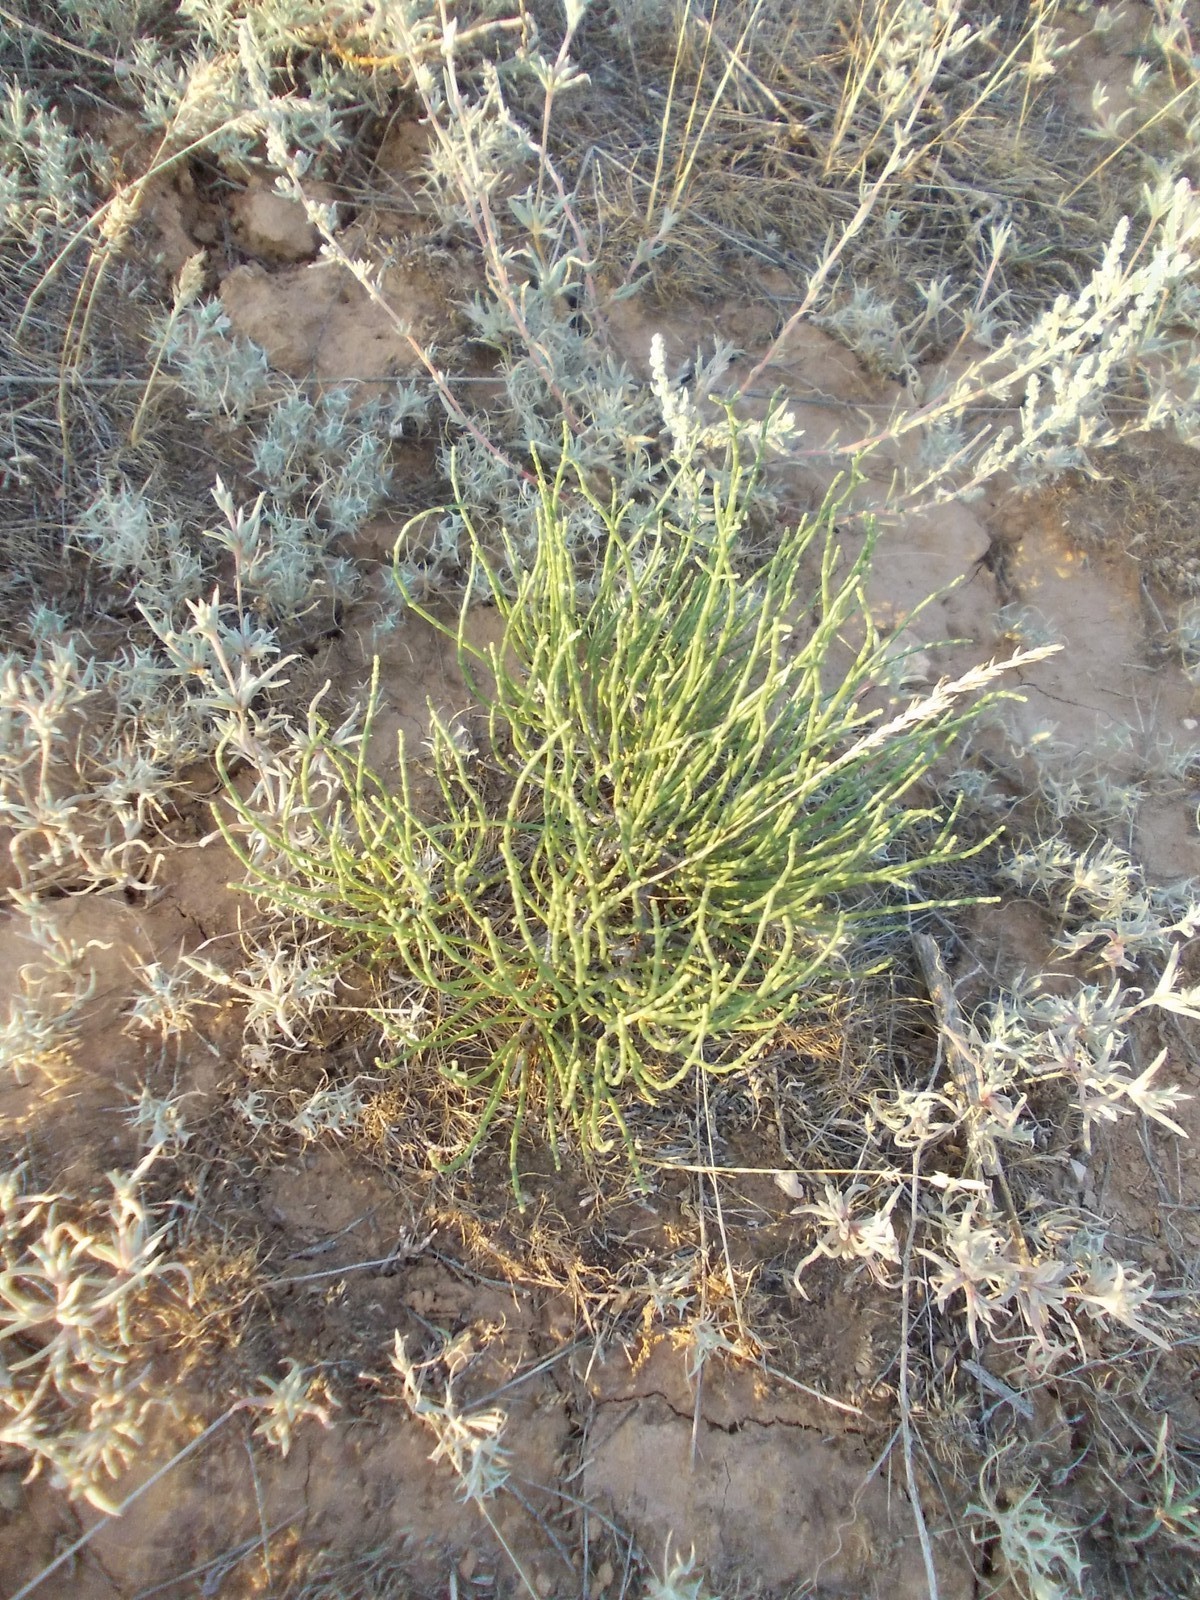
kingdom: Plantae
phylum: Tracheophyta
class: Magnoliopsida
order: Caryophyllales
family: Amaranthaceae
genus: Anabasis
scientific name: Anabasis aphylla
